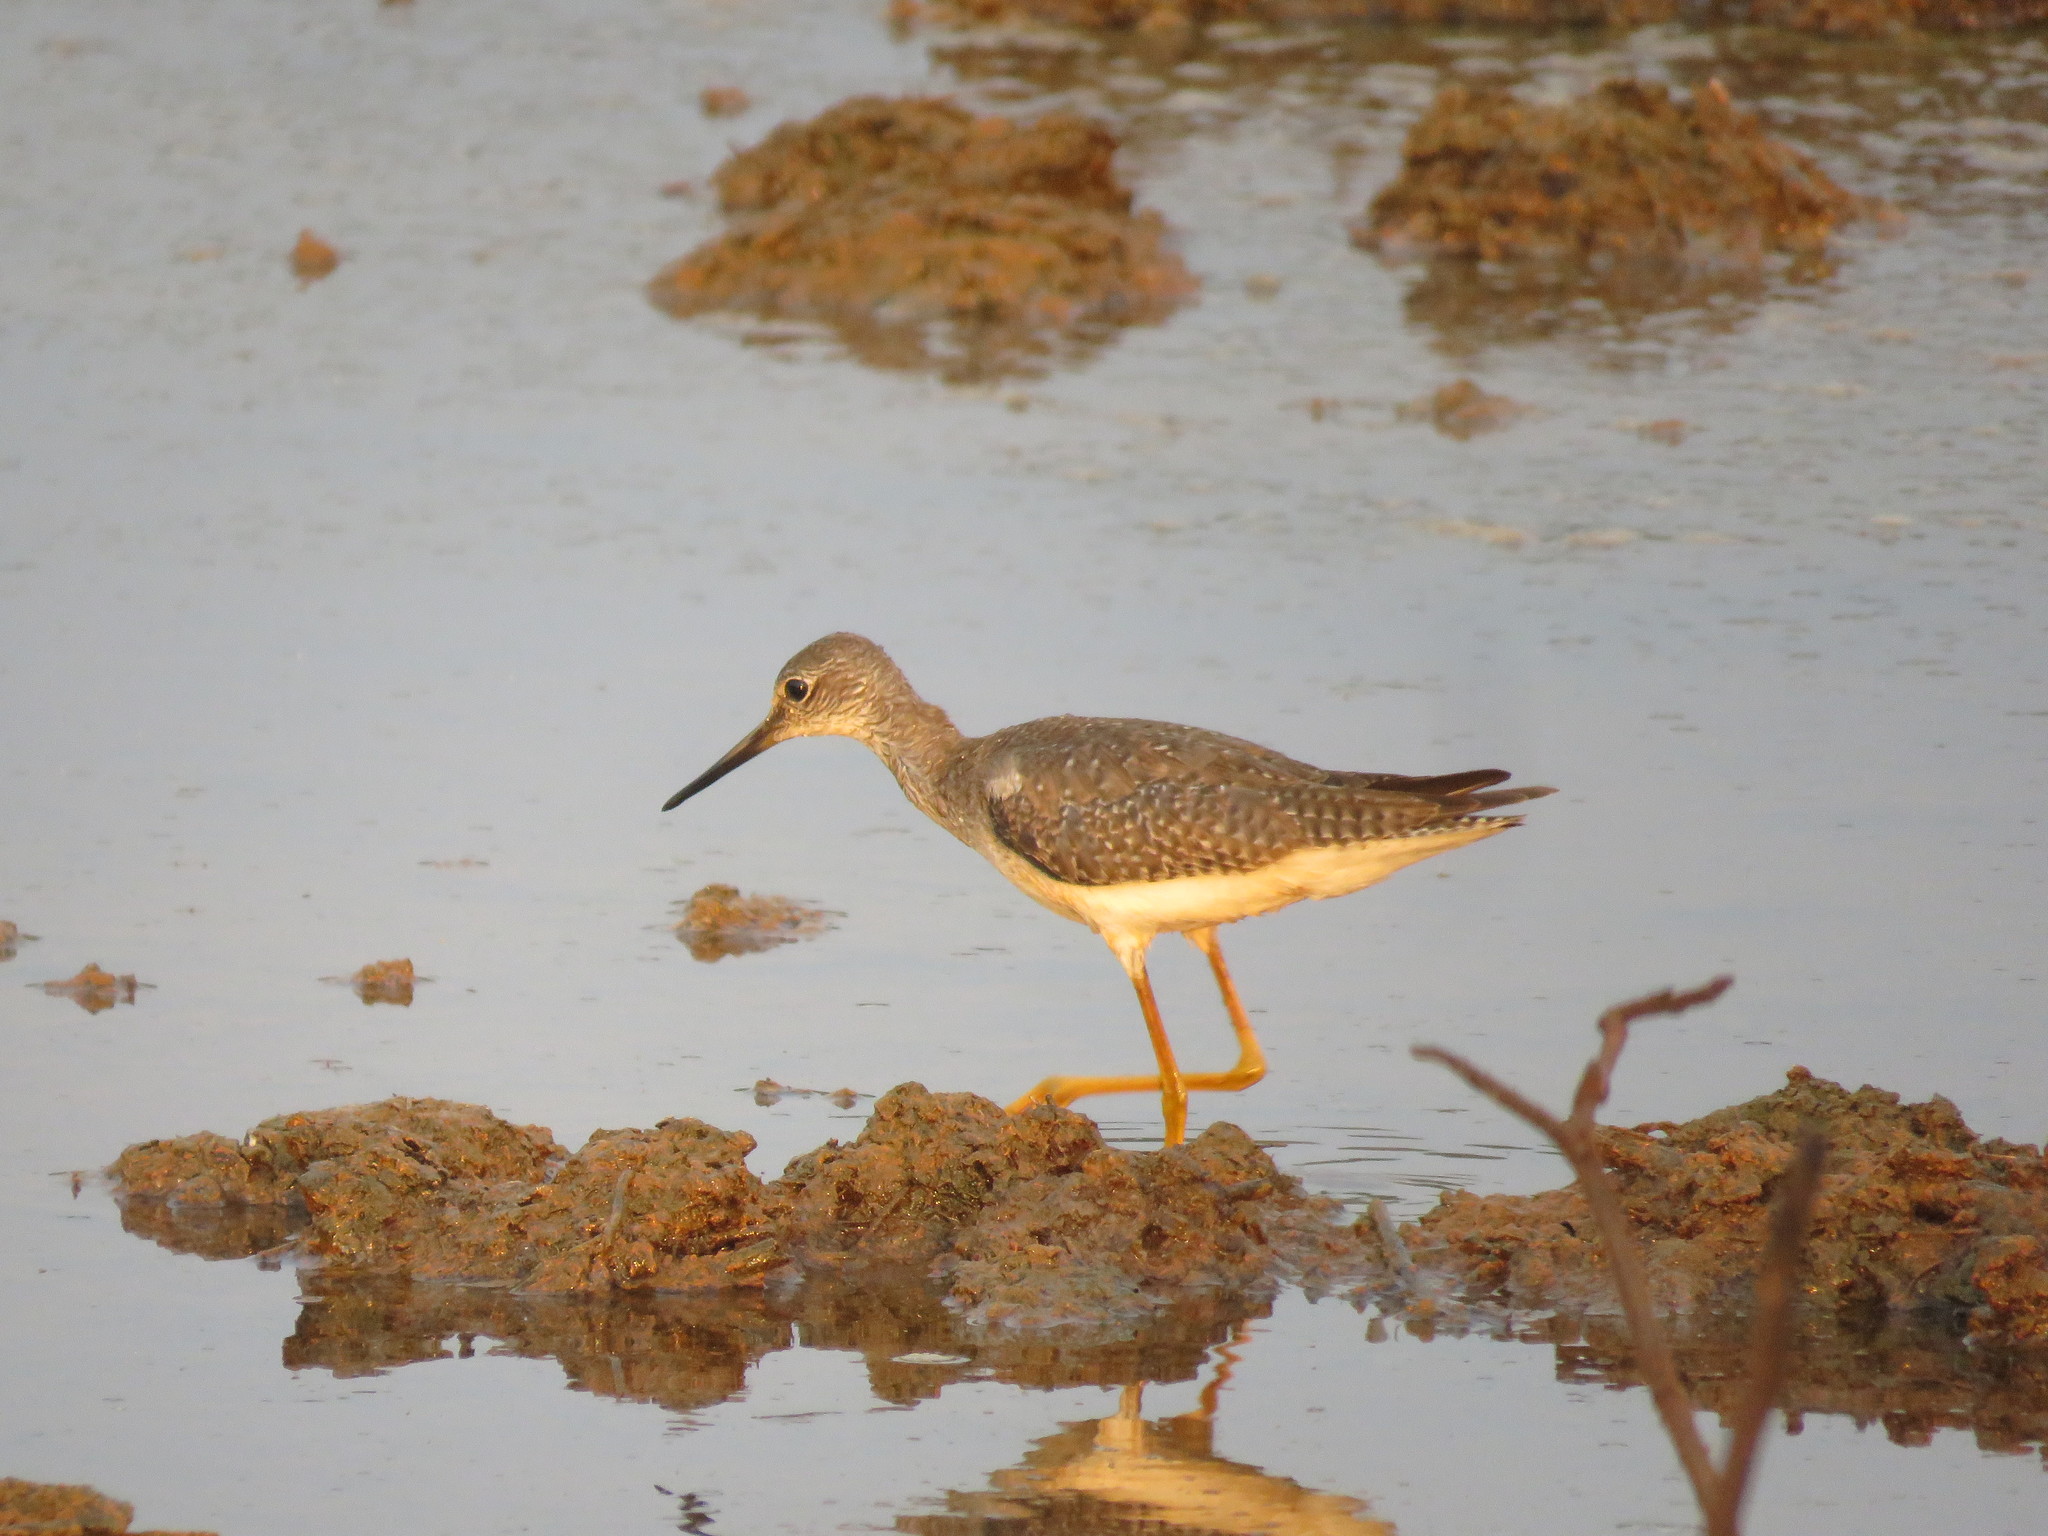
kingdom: Animalia
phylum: Chordata
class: Aves
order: Charadriiformes
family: Scolopacidae
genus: Tringa
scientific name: Tringa melanoleuca
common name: Greater yellowlegs
